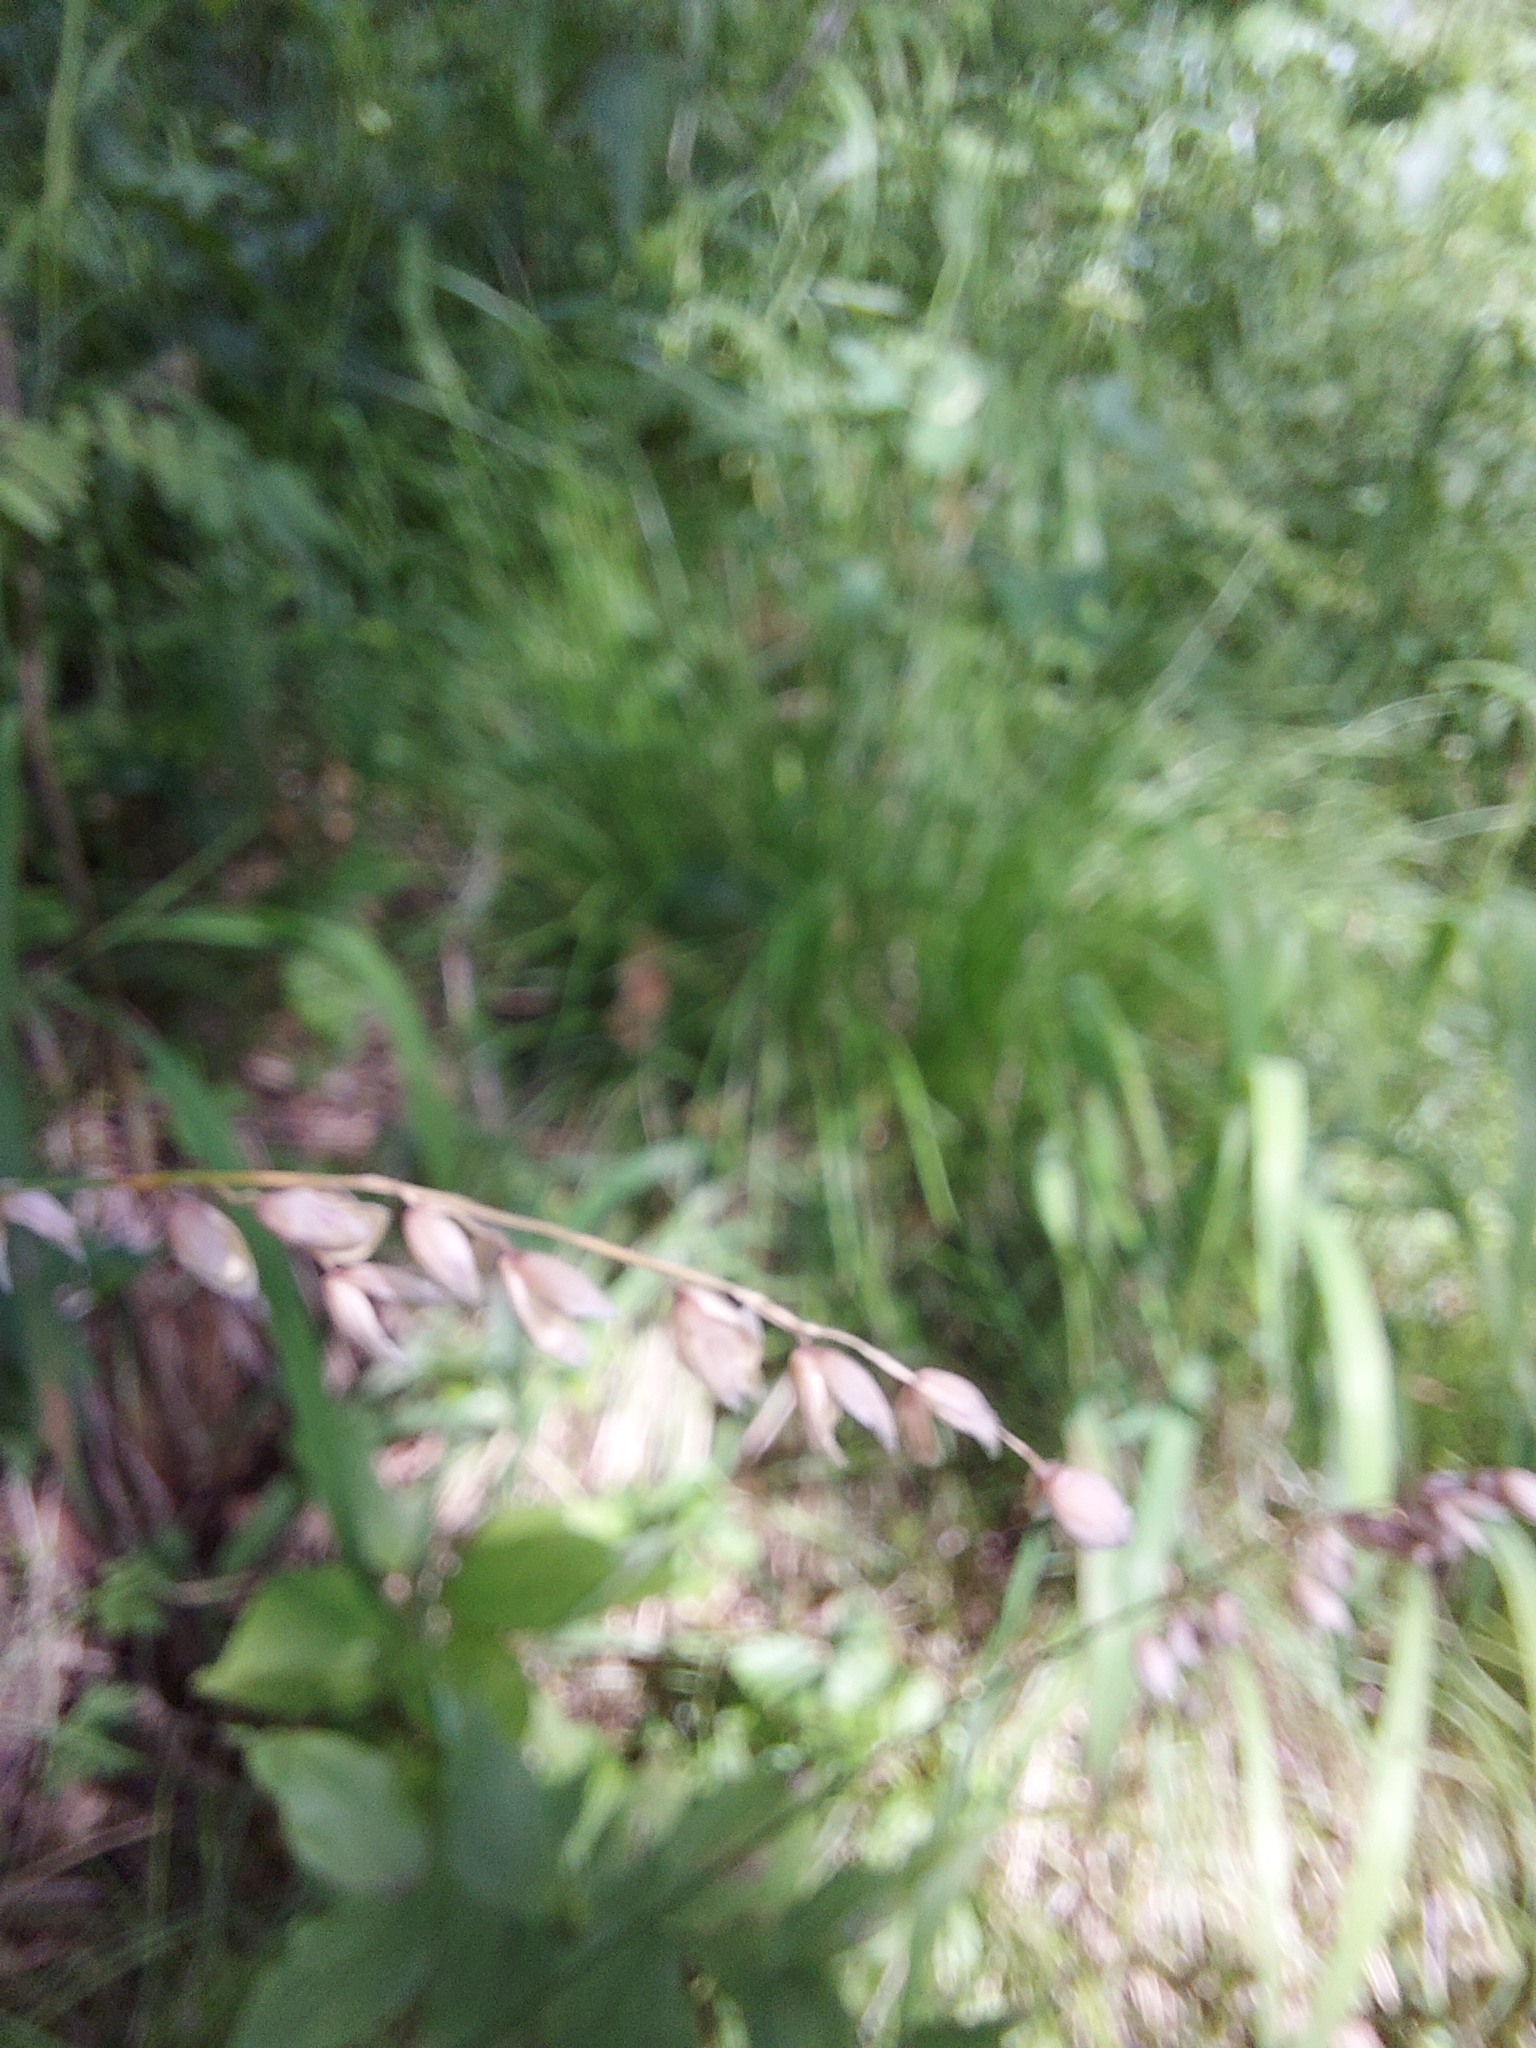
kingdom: Plantae
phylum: Tracheophyta
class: Liliopsida
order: Poales
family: Poaceae
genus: Melica
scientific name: Melica nutans
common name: Mountain melick
